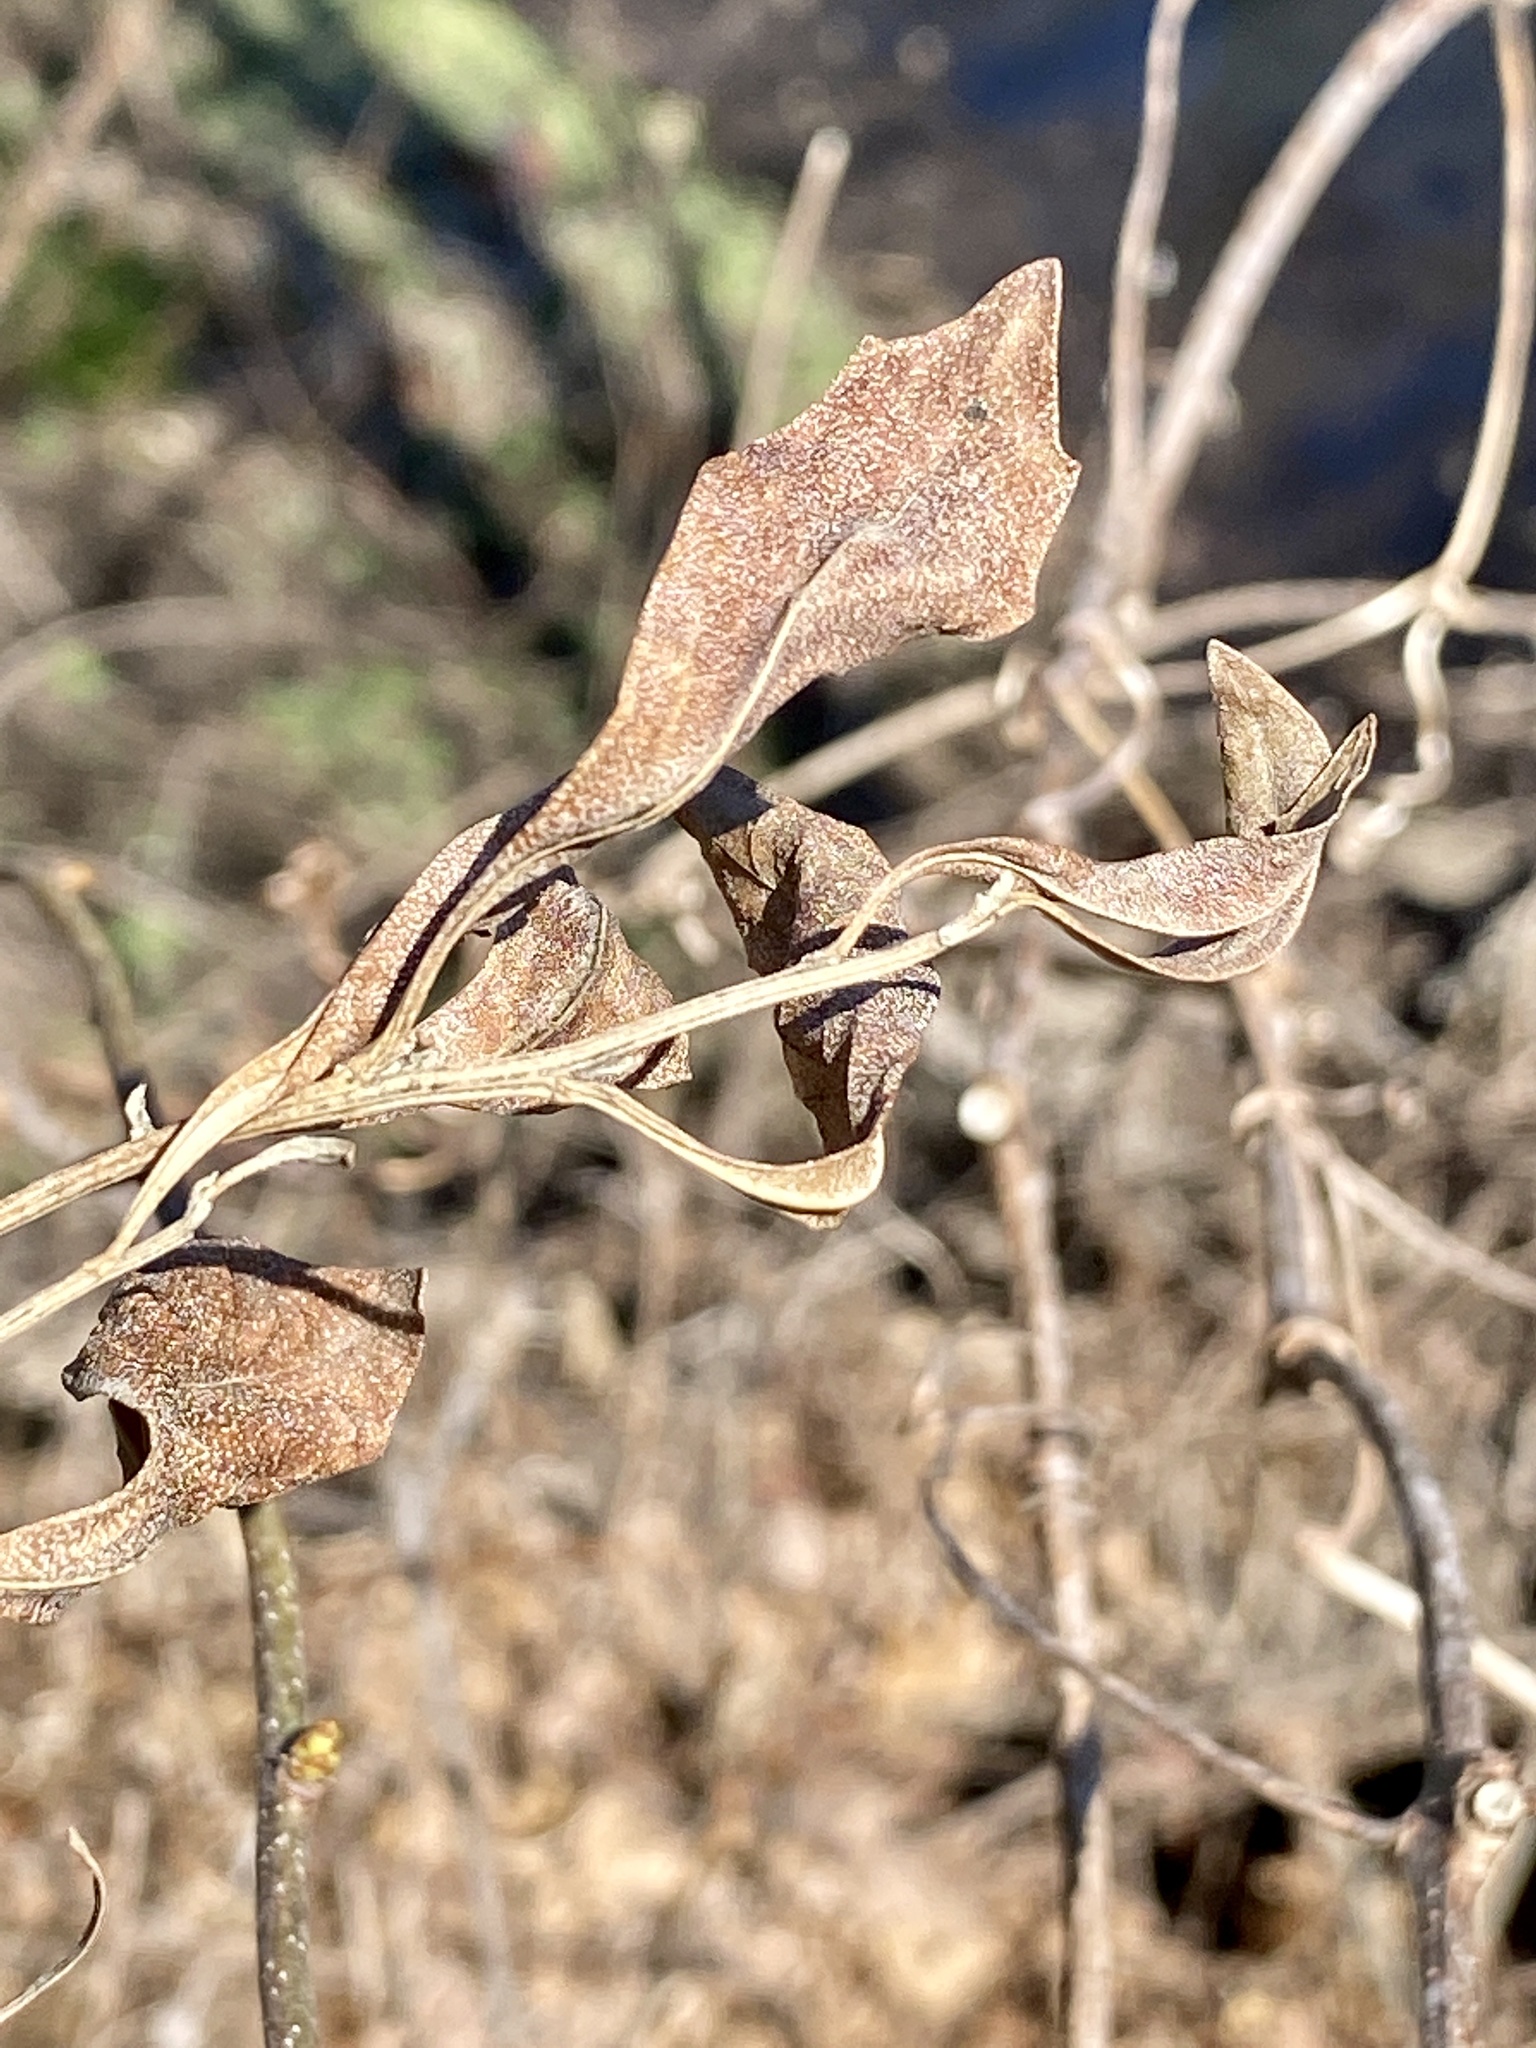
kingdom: Plantae
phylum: Tracheophyta
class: Magnoliopsida
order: Asterales
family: Asteraceae
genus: Baccharis
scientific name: Baccharis halimifolia
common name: Eastern baccharis
